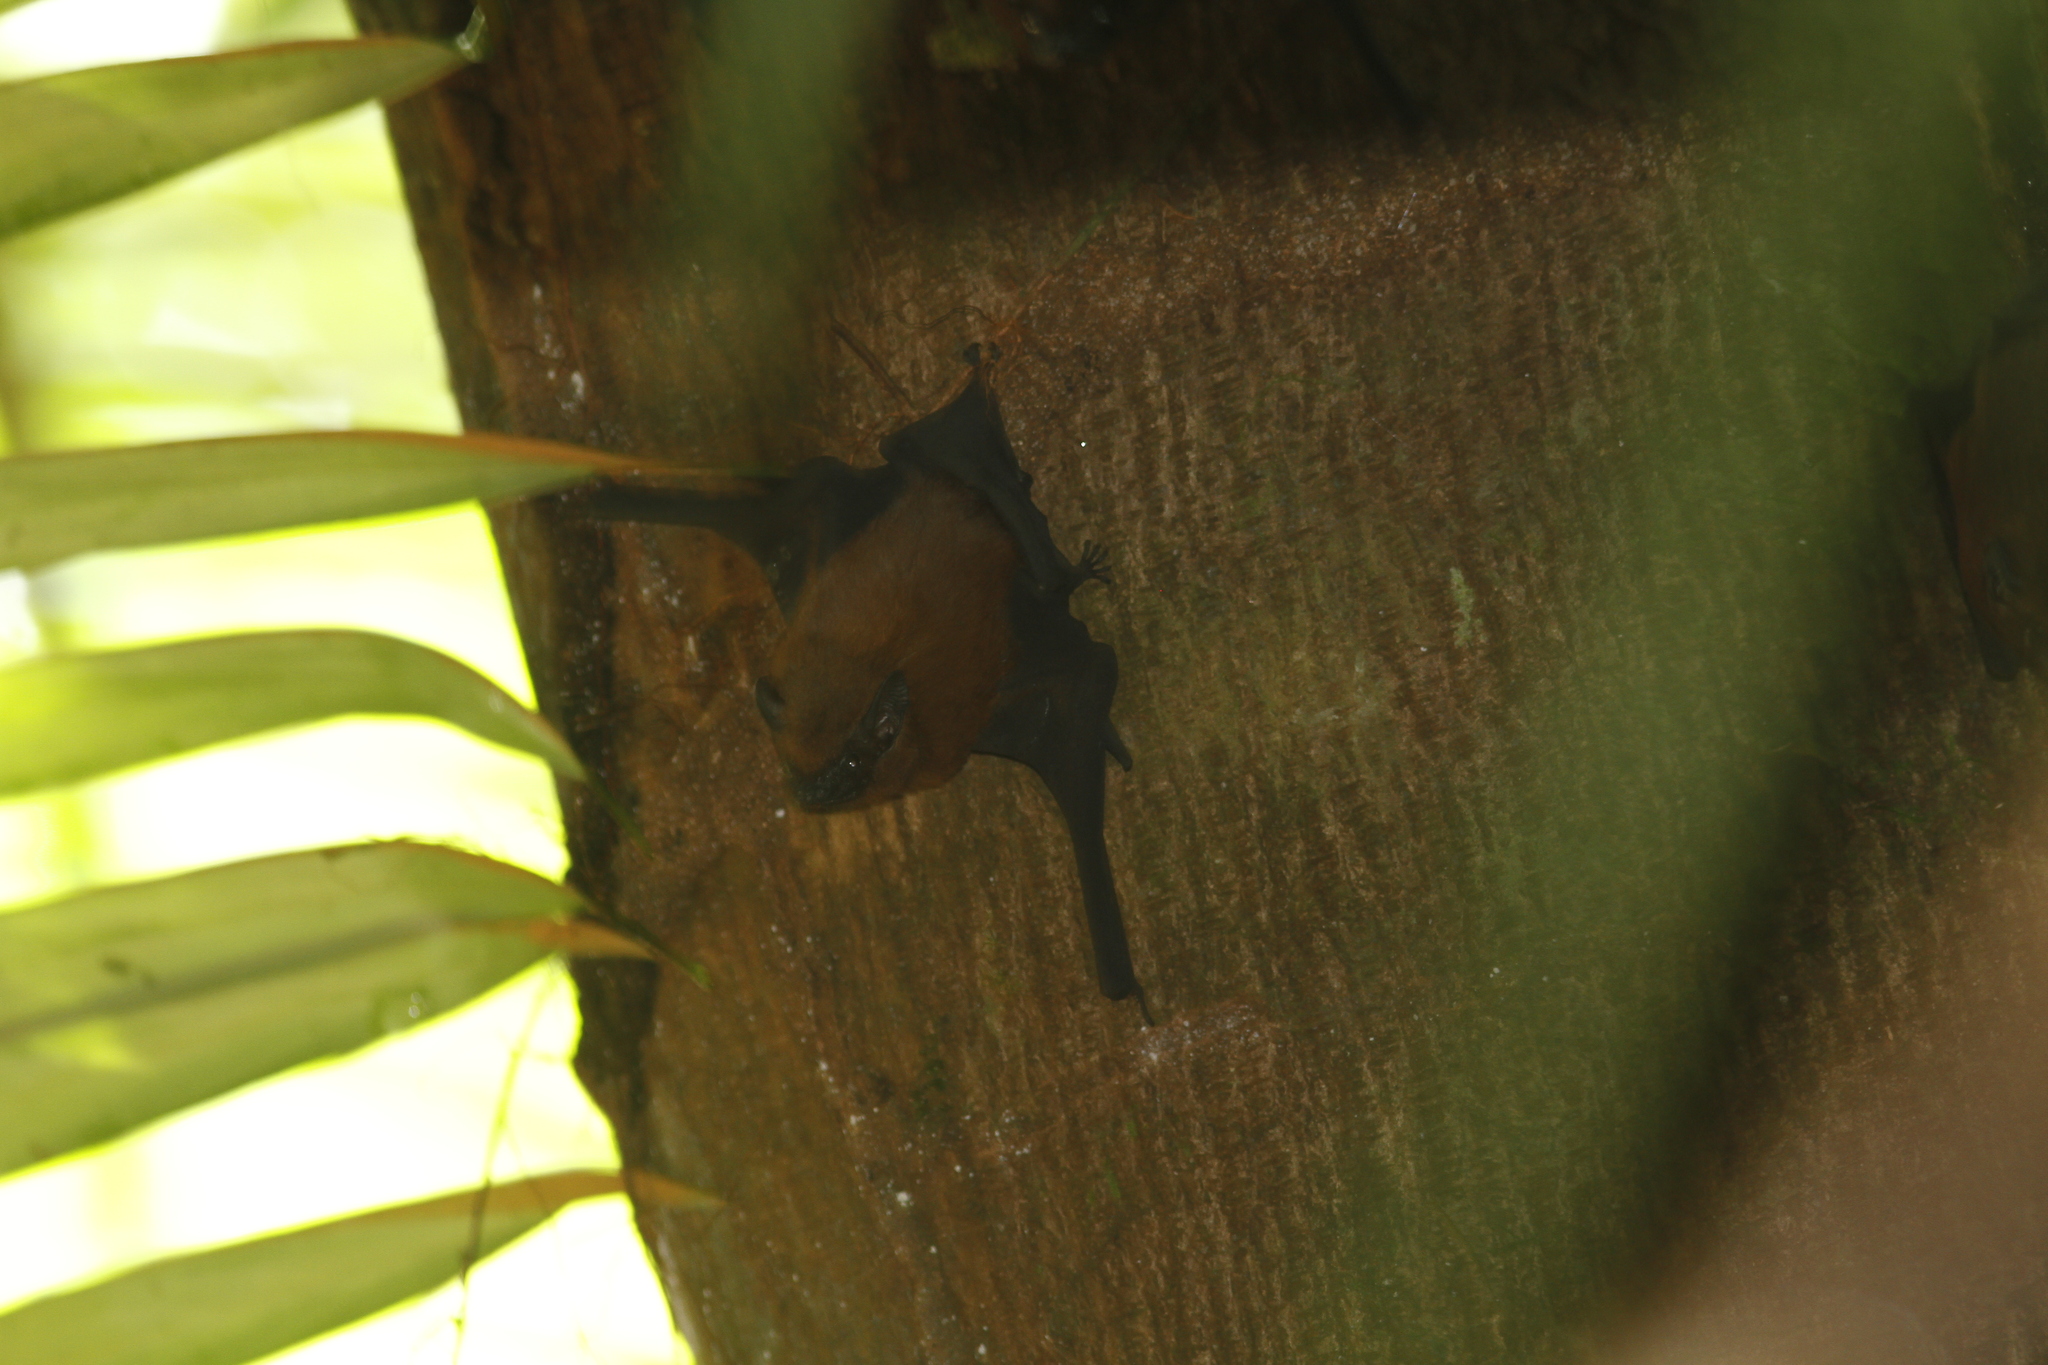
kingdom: Animalia
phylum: Chordata
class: Mammalia
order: Chiroptera
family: Emballonuridae
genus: Cormura
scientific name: Cormura brevirostris
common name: Chestnut sac-winged bat
